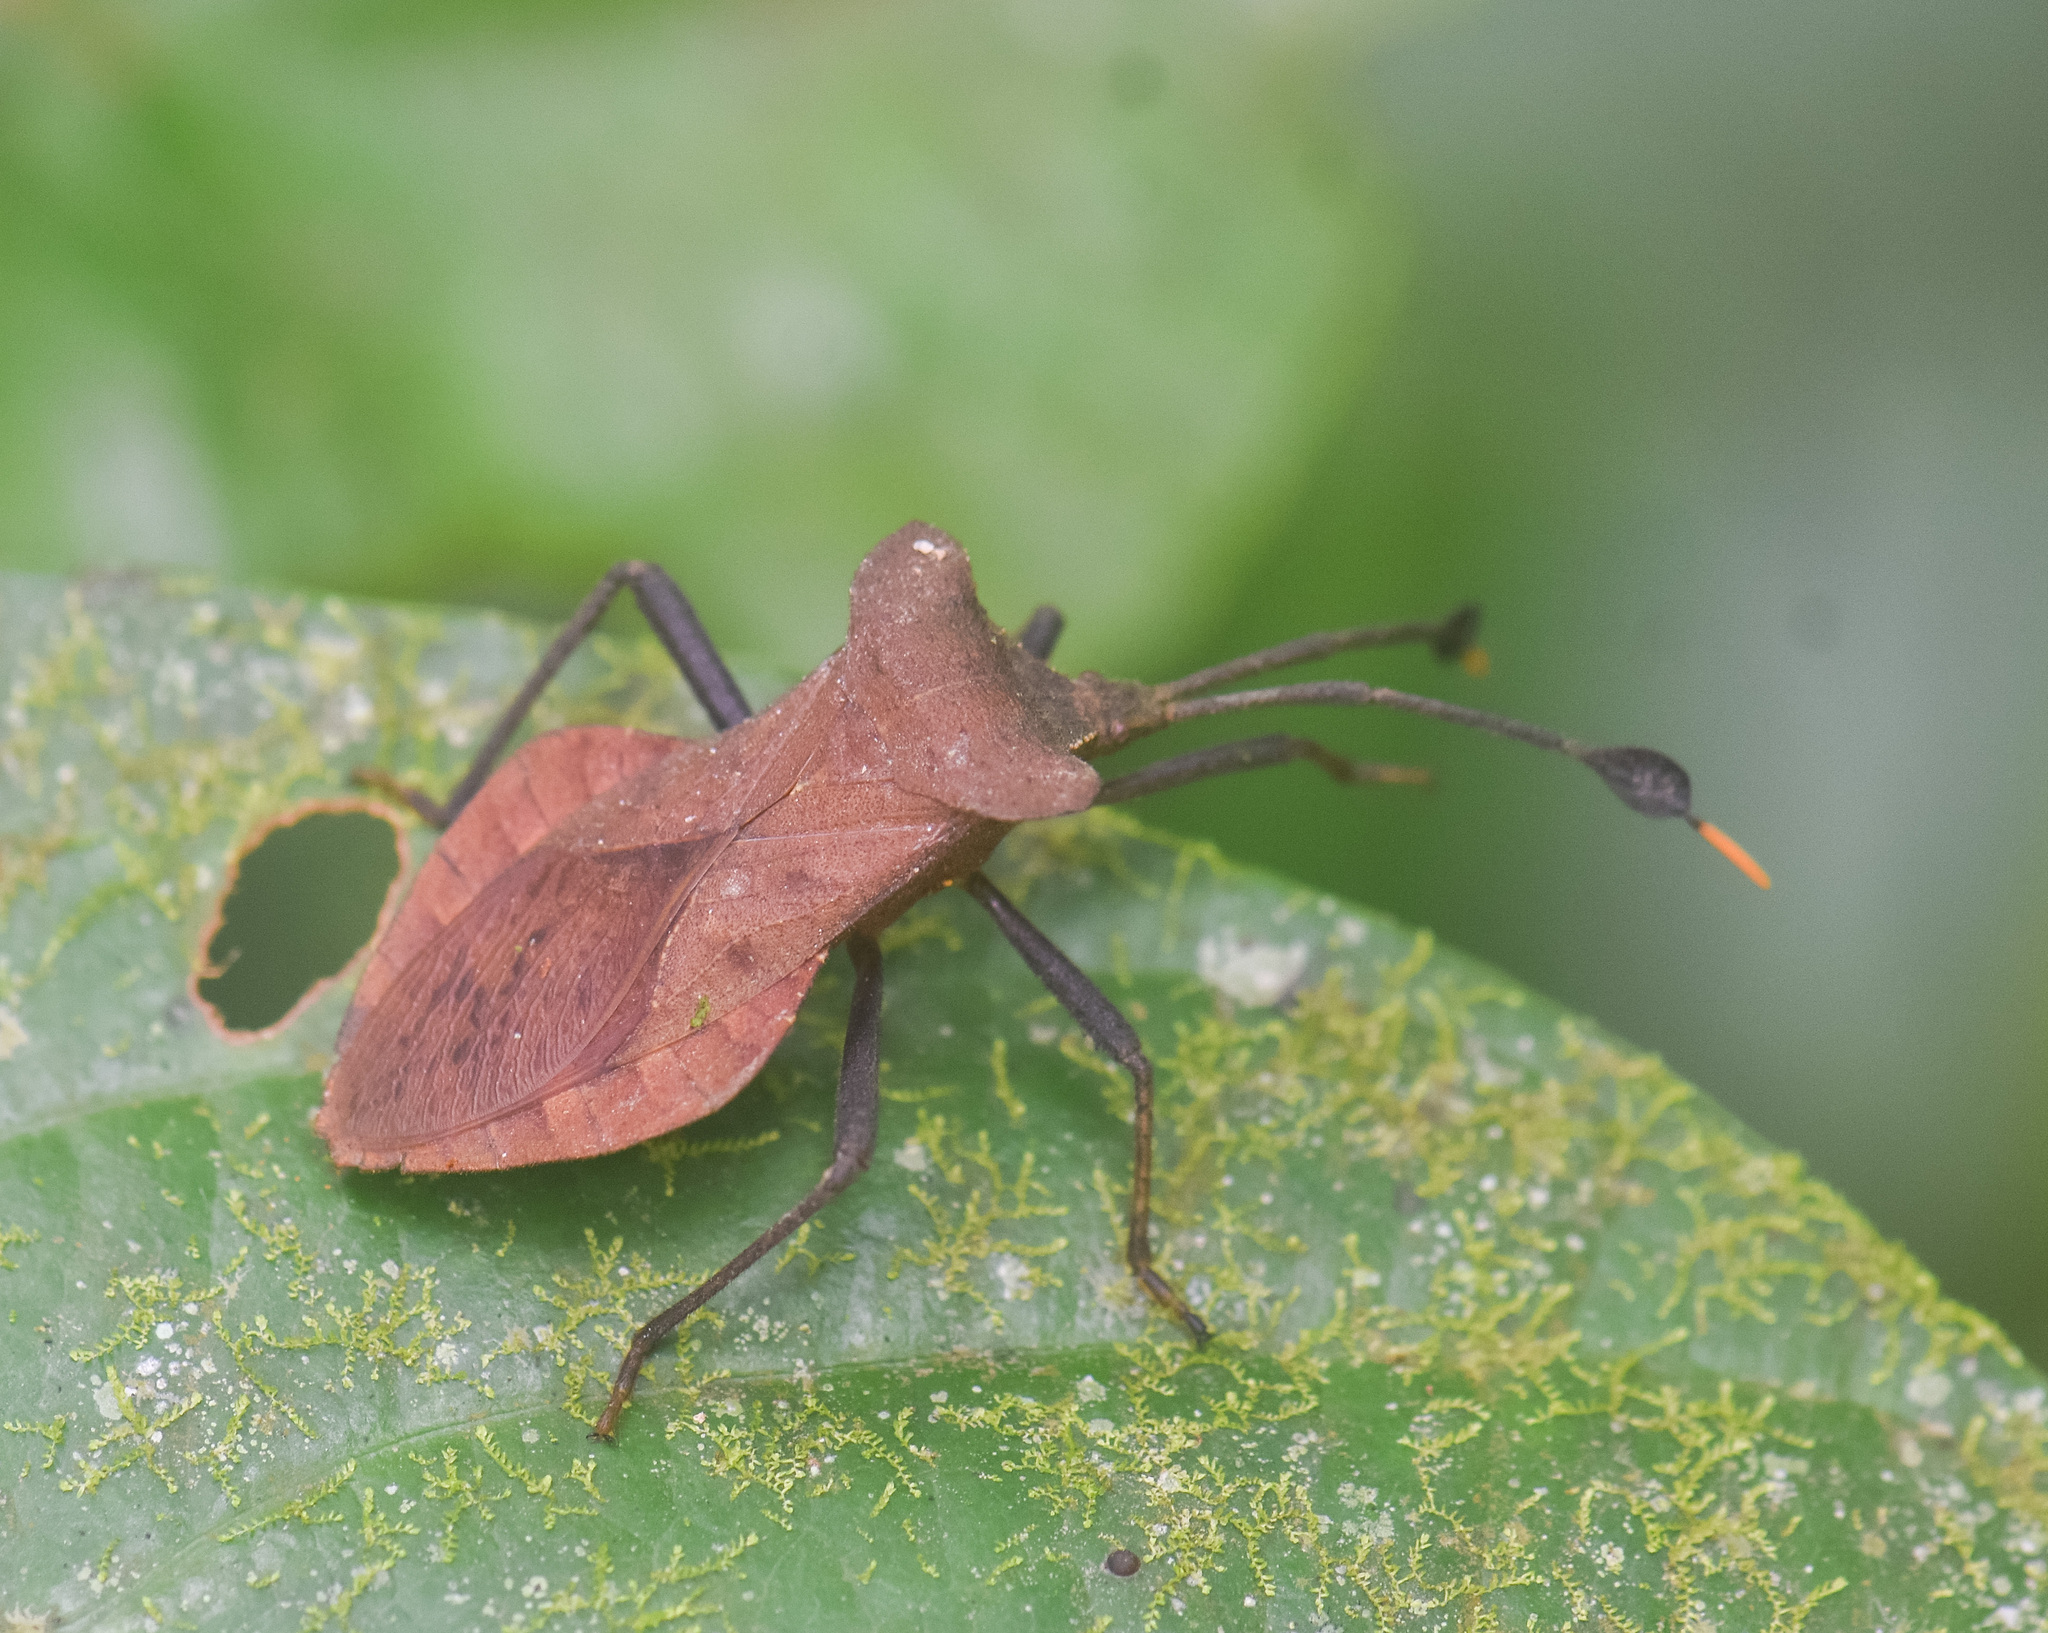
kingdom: Animalia
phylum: Arthropoda
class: Insecta
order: Hemiptera
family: Coreidae
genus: Dalader
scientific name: Dalader planiventris
